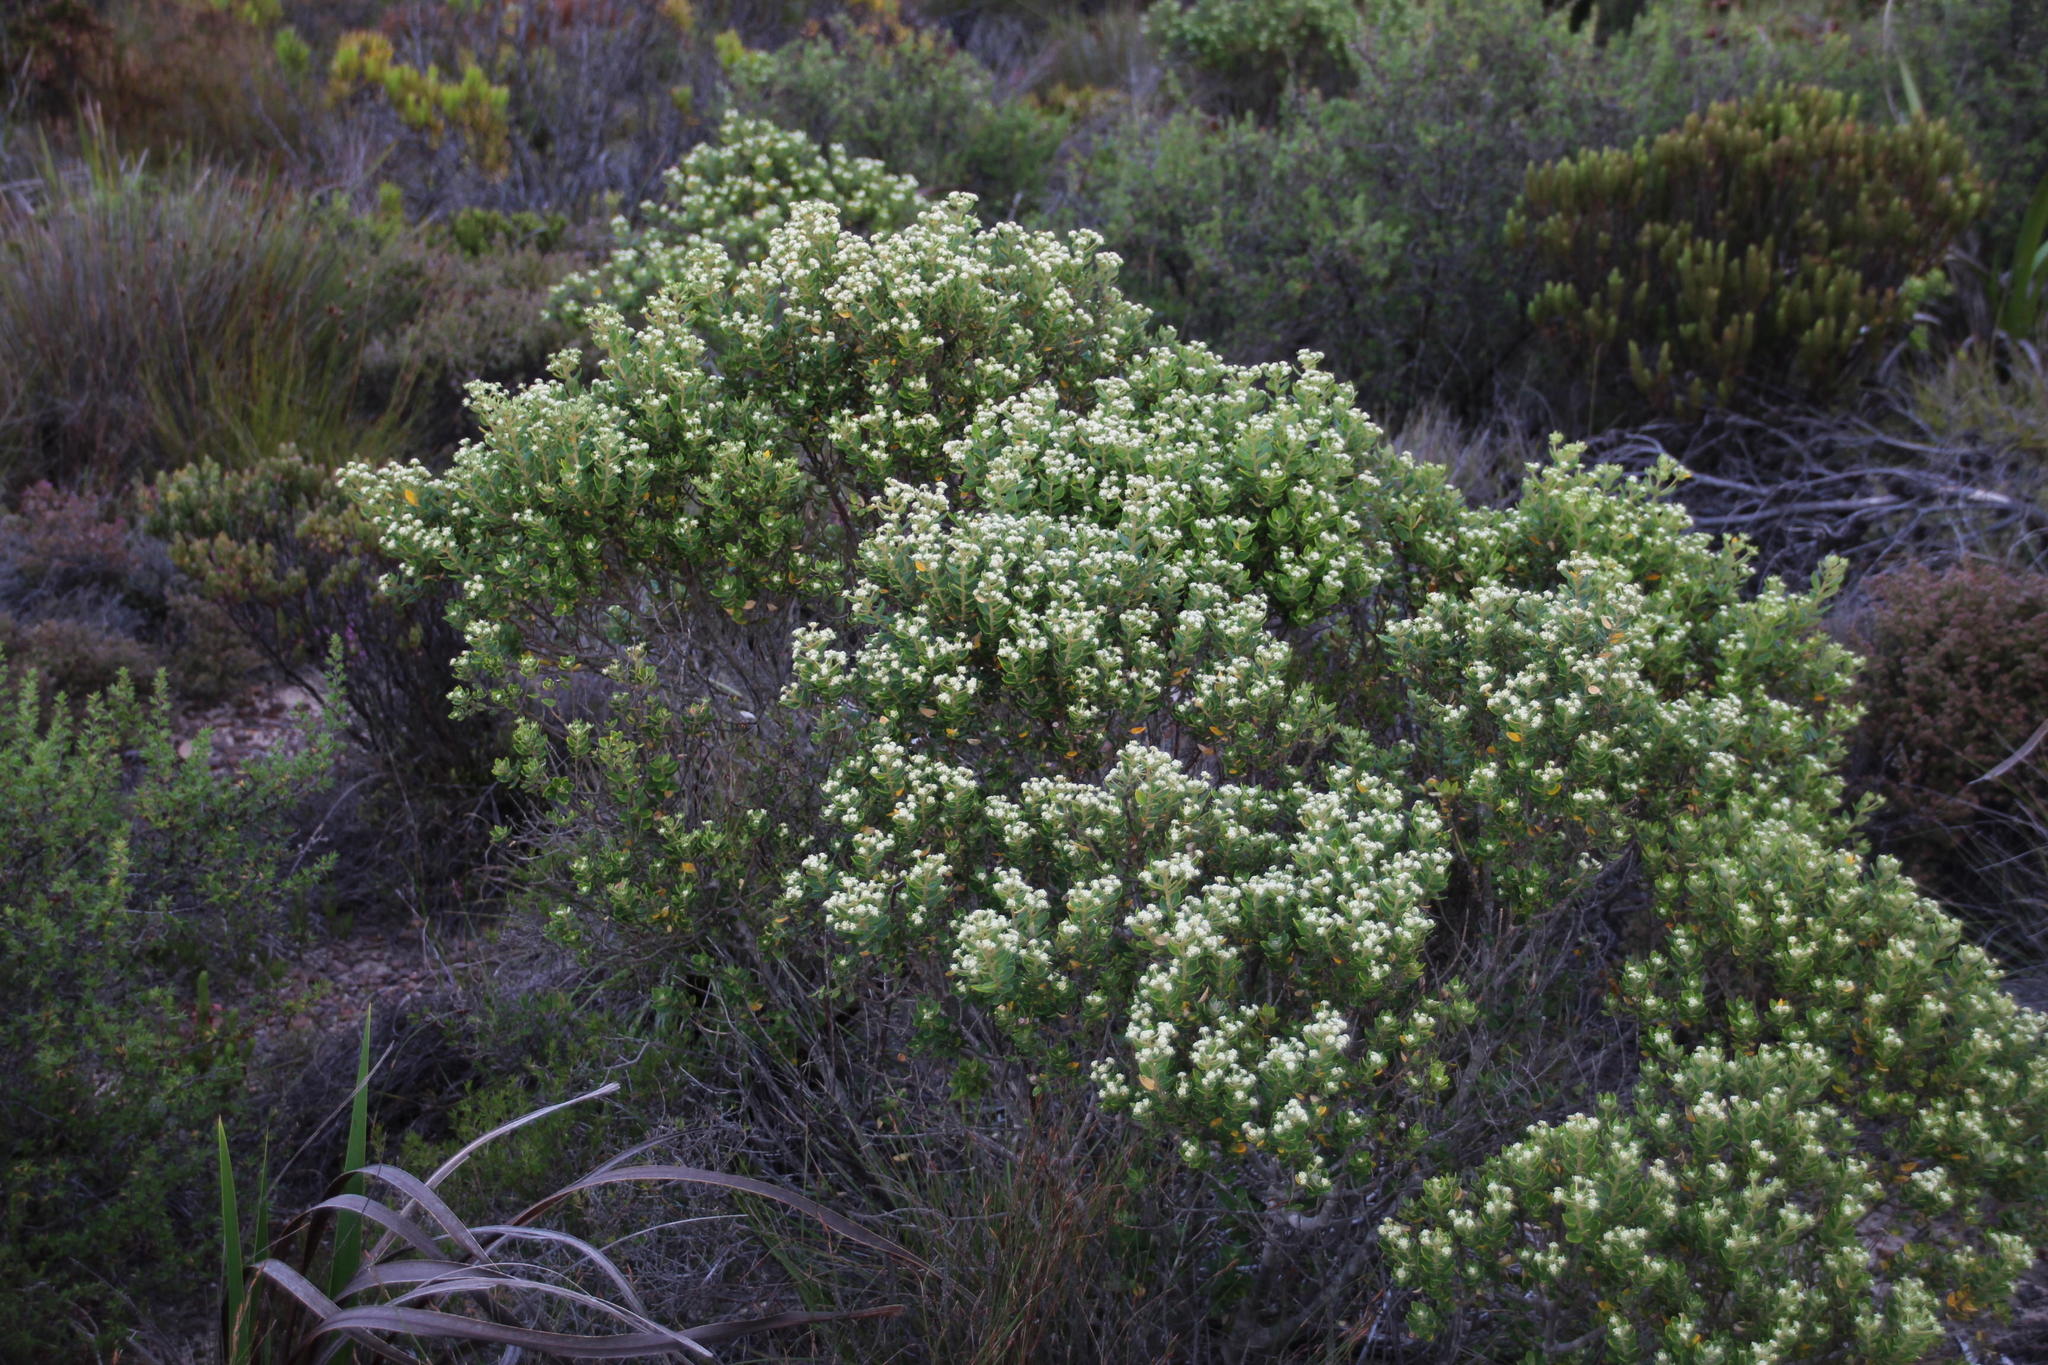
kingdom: Plantae
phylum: Tracheophyta
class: Magnoliopsida
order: Rosales
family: Rhamnaceae
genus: Phylica
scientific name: Phylica buxifolia
